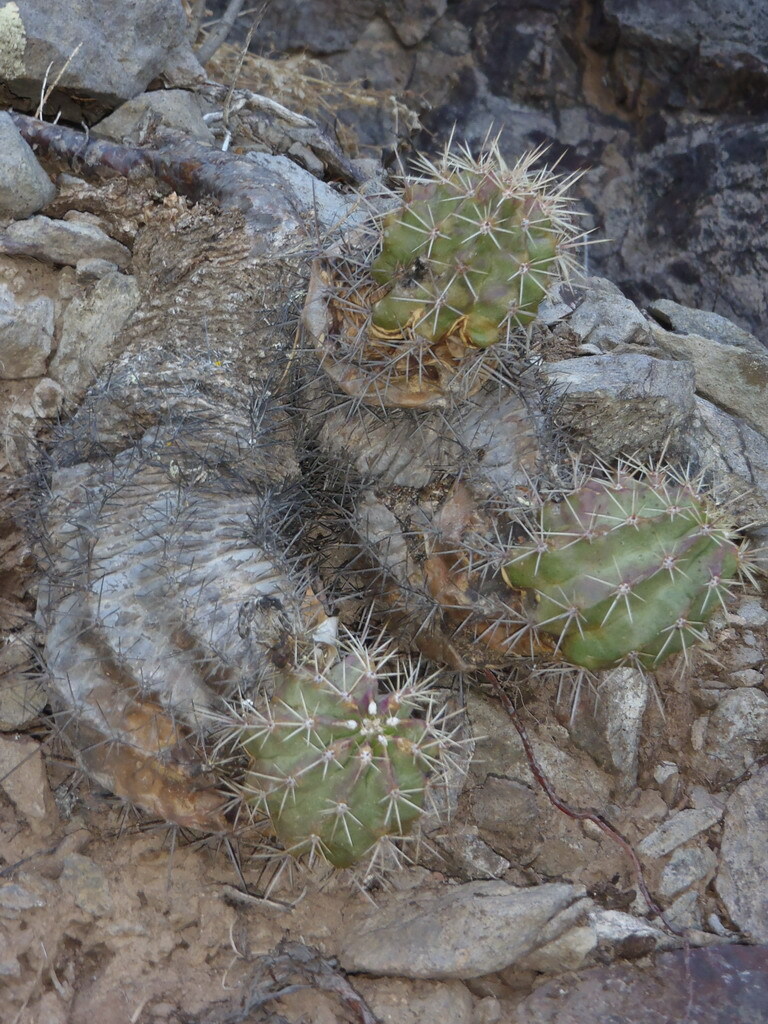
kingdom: Plantae
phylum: Tracheophyta
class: Magnoliopsida
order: Caryophyllales
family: Cactaceae
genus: Echinocereus
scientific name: Echinocereus coccineus
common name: Scarlet hedgehog cactus
